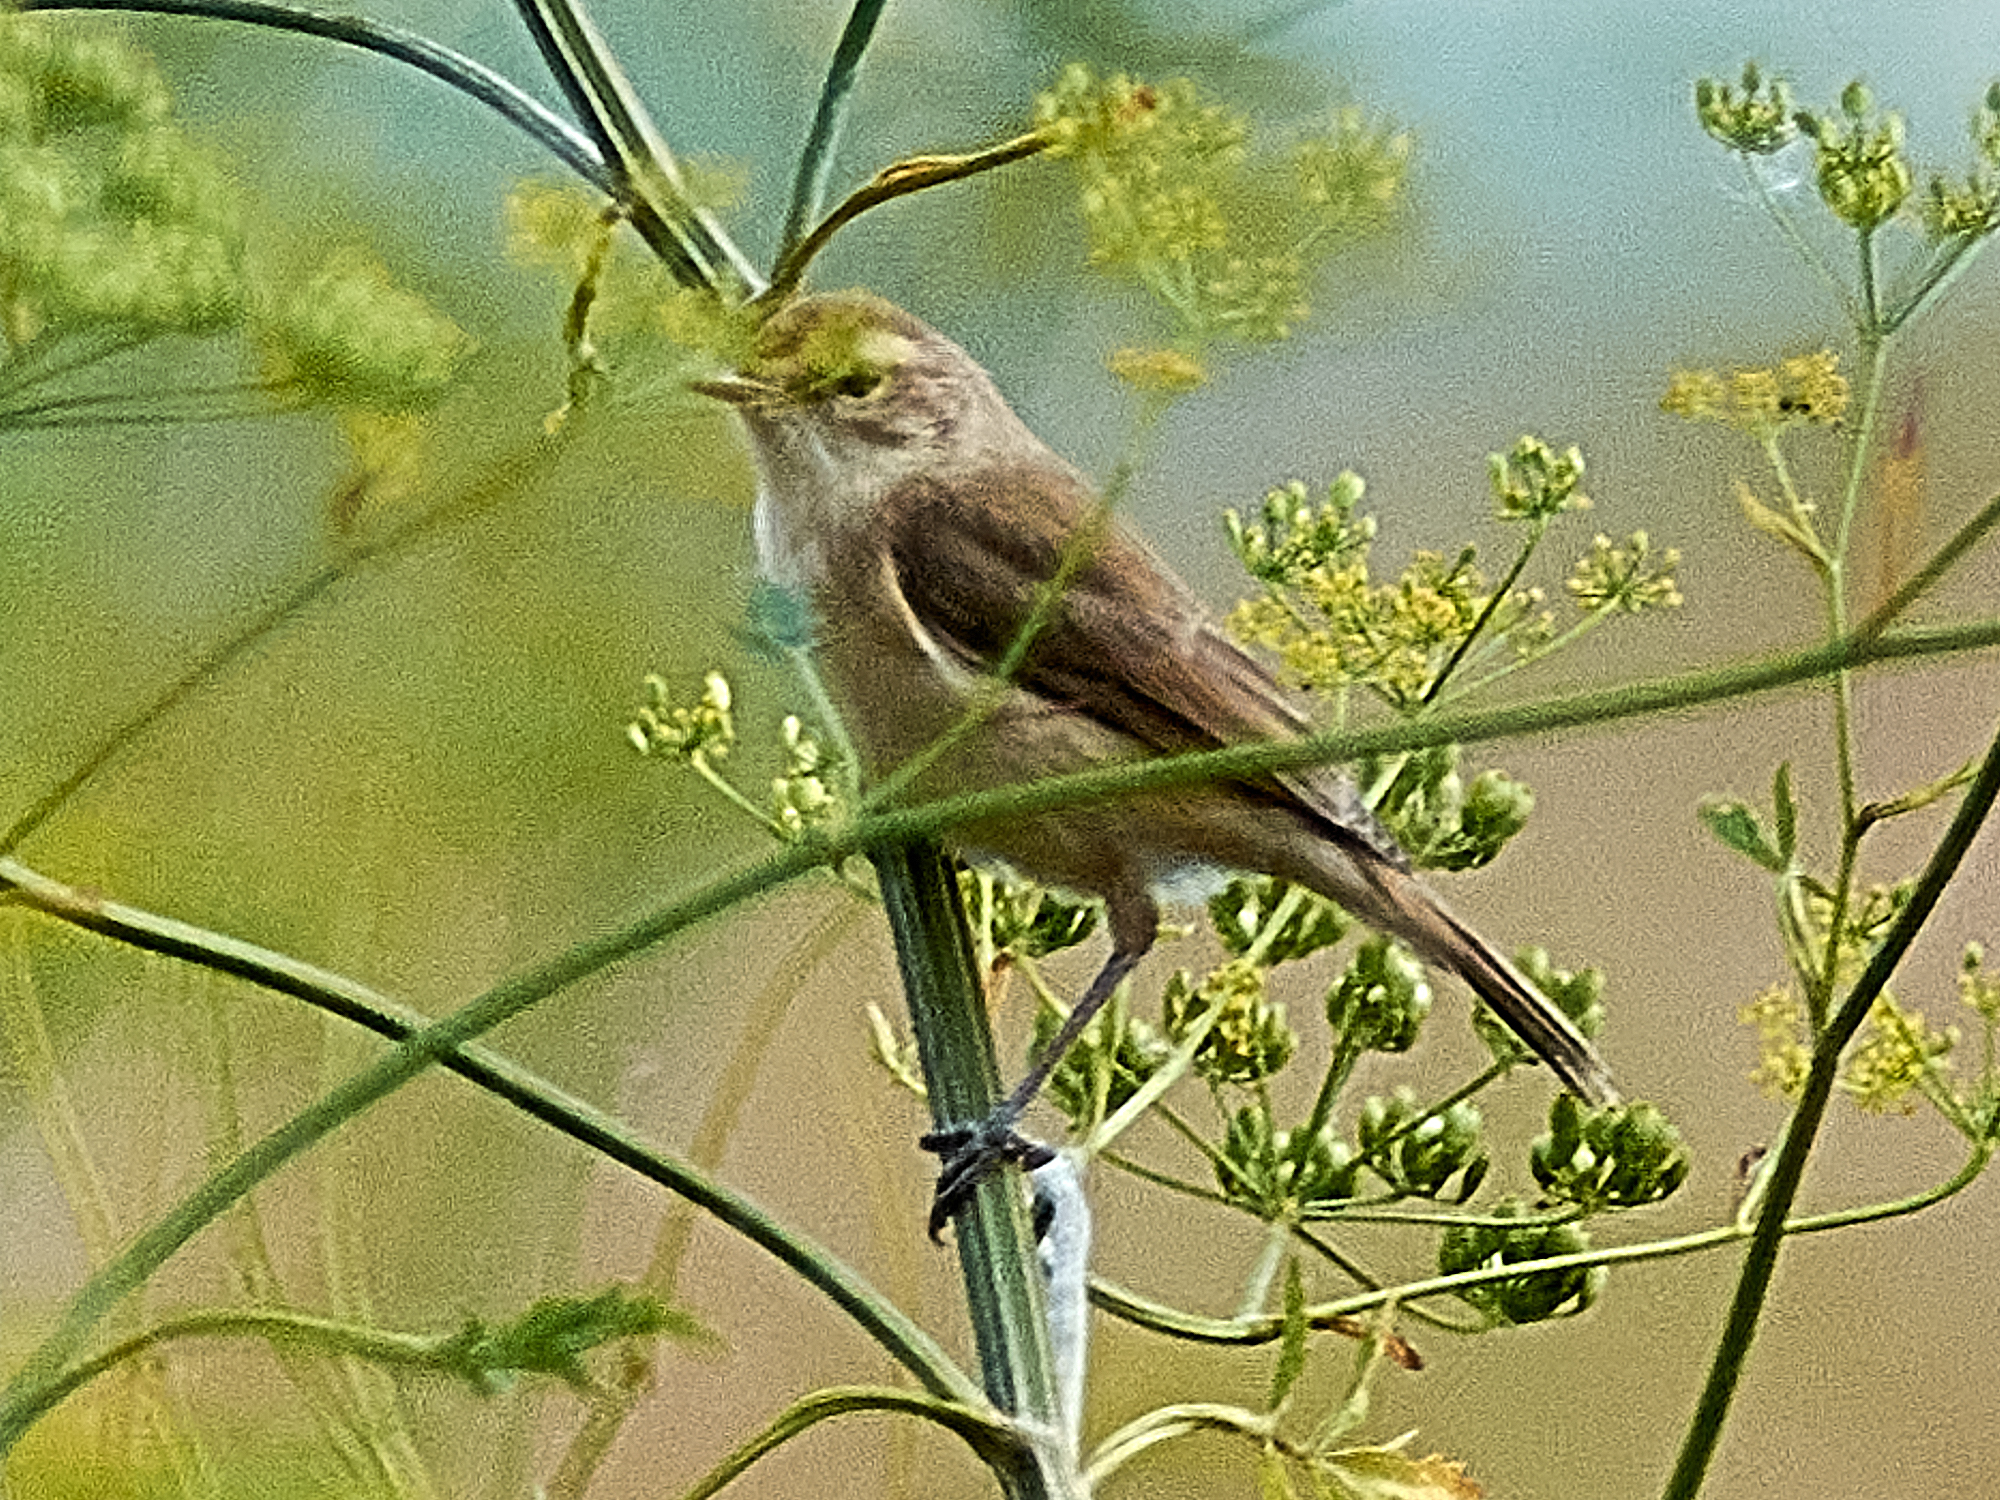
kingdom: Animalia
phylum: Chordata
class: Aves
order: Passeriformes
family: Acrocephalidae
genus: Iduna
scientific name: Iduna caligata
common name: Booted warbler
